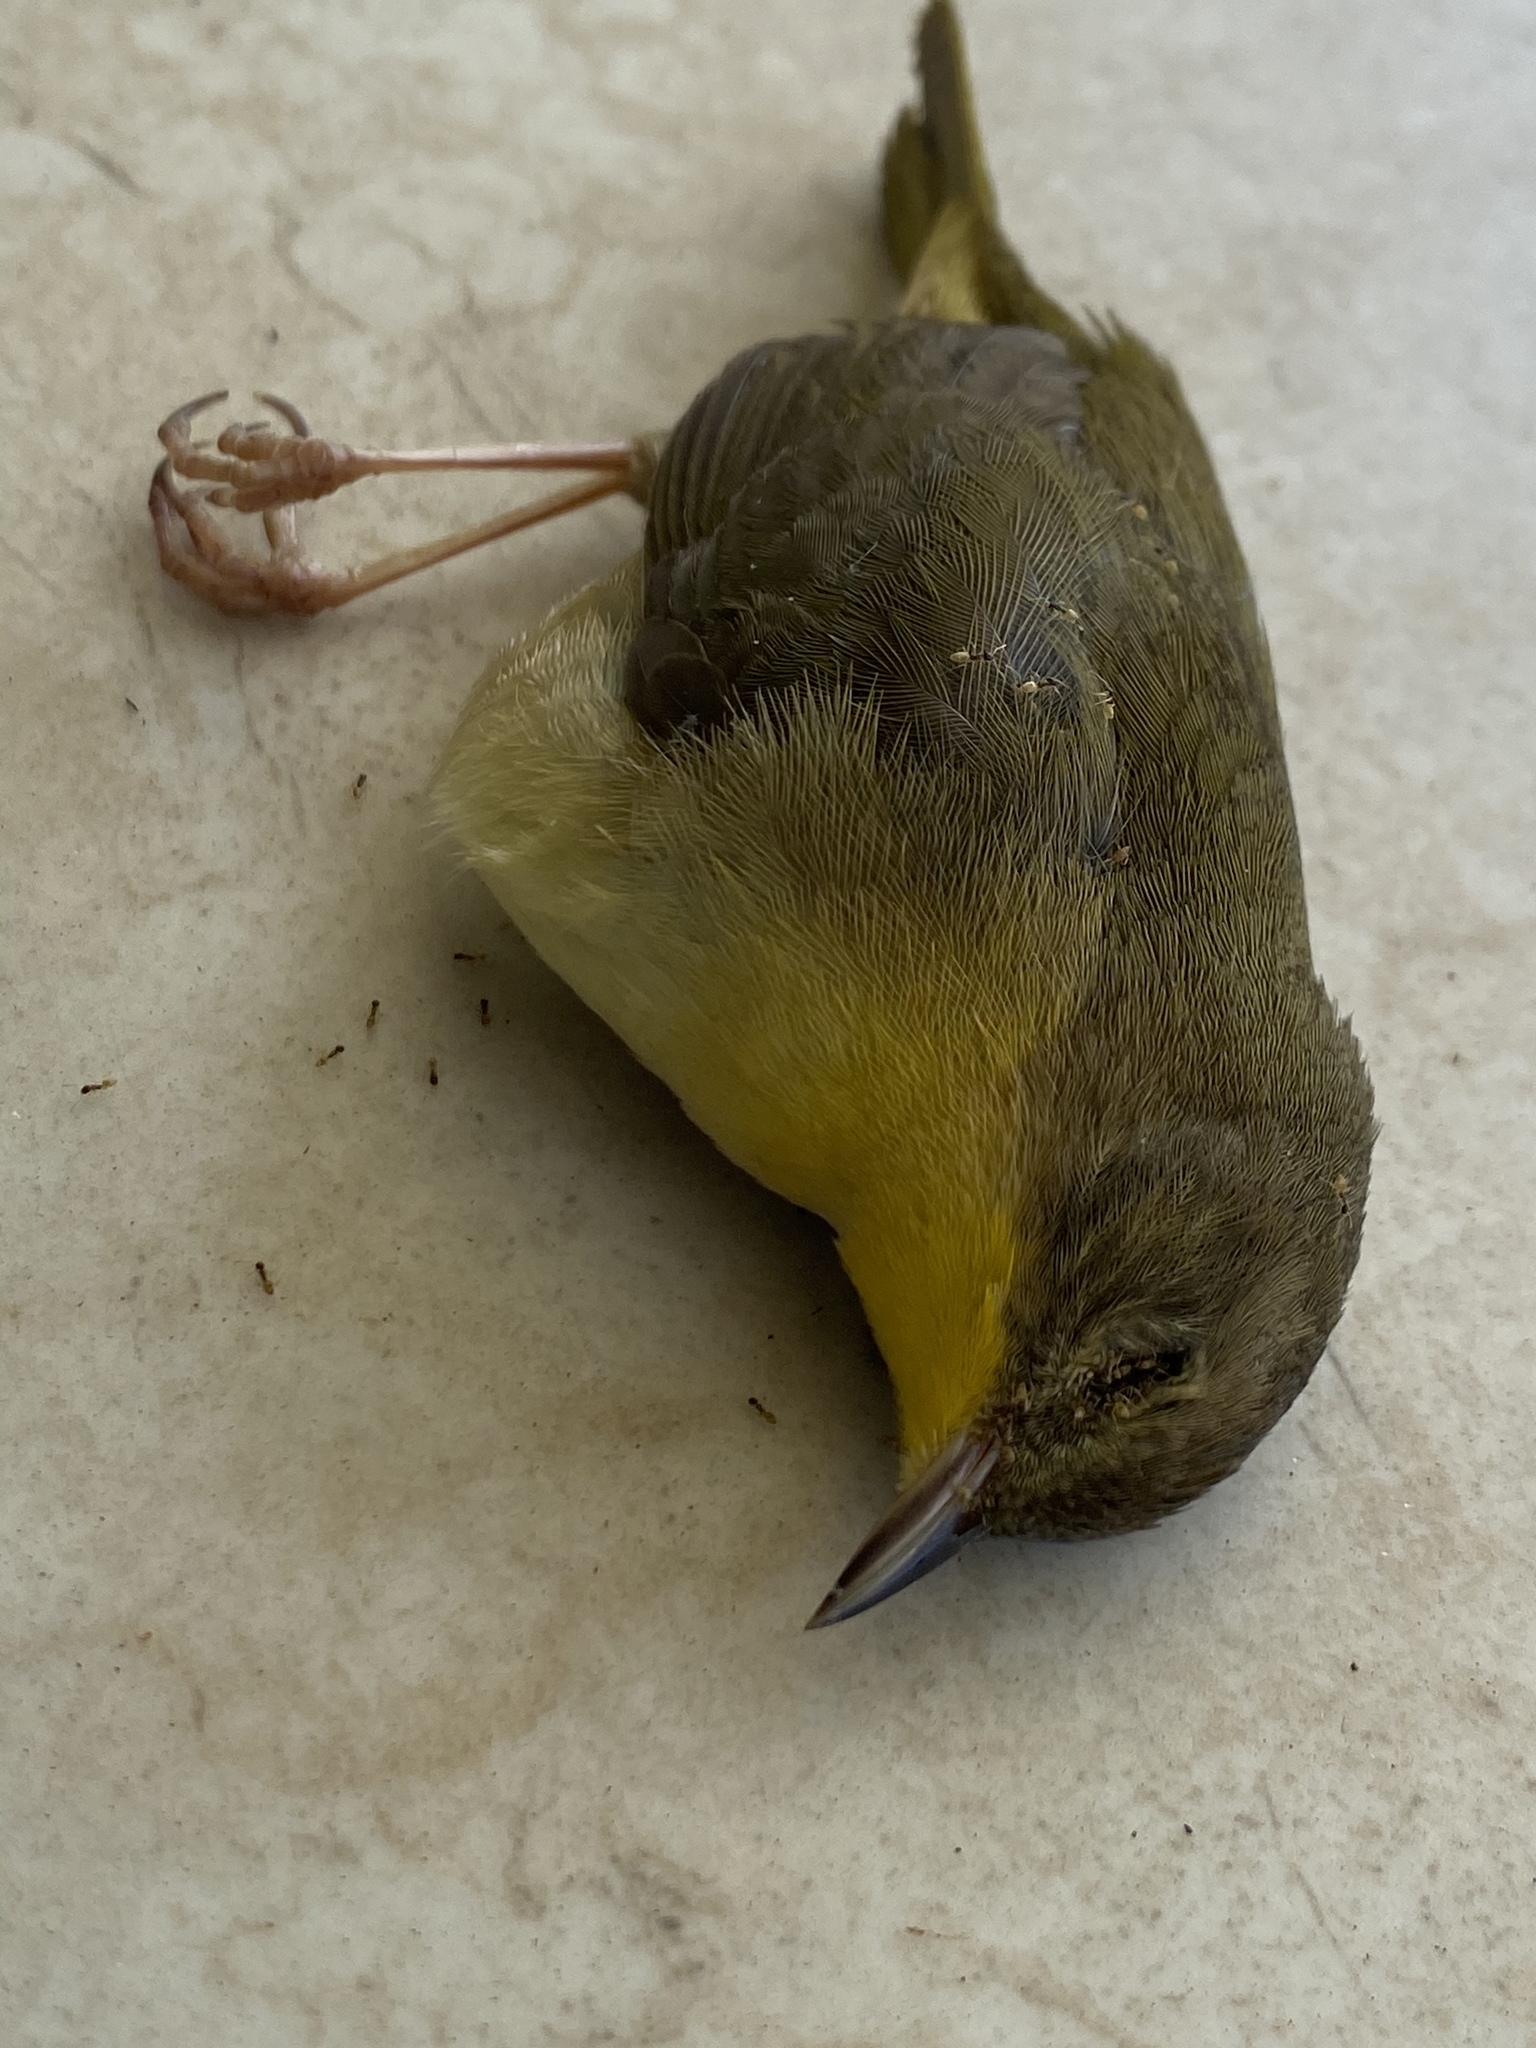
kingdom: Animalia
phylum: Chordata
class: Aves
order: Passeriformes
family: Parulidae
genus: Geothlypis
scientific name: Geothlypis trichas
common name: Common yellowthroat
